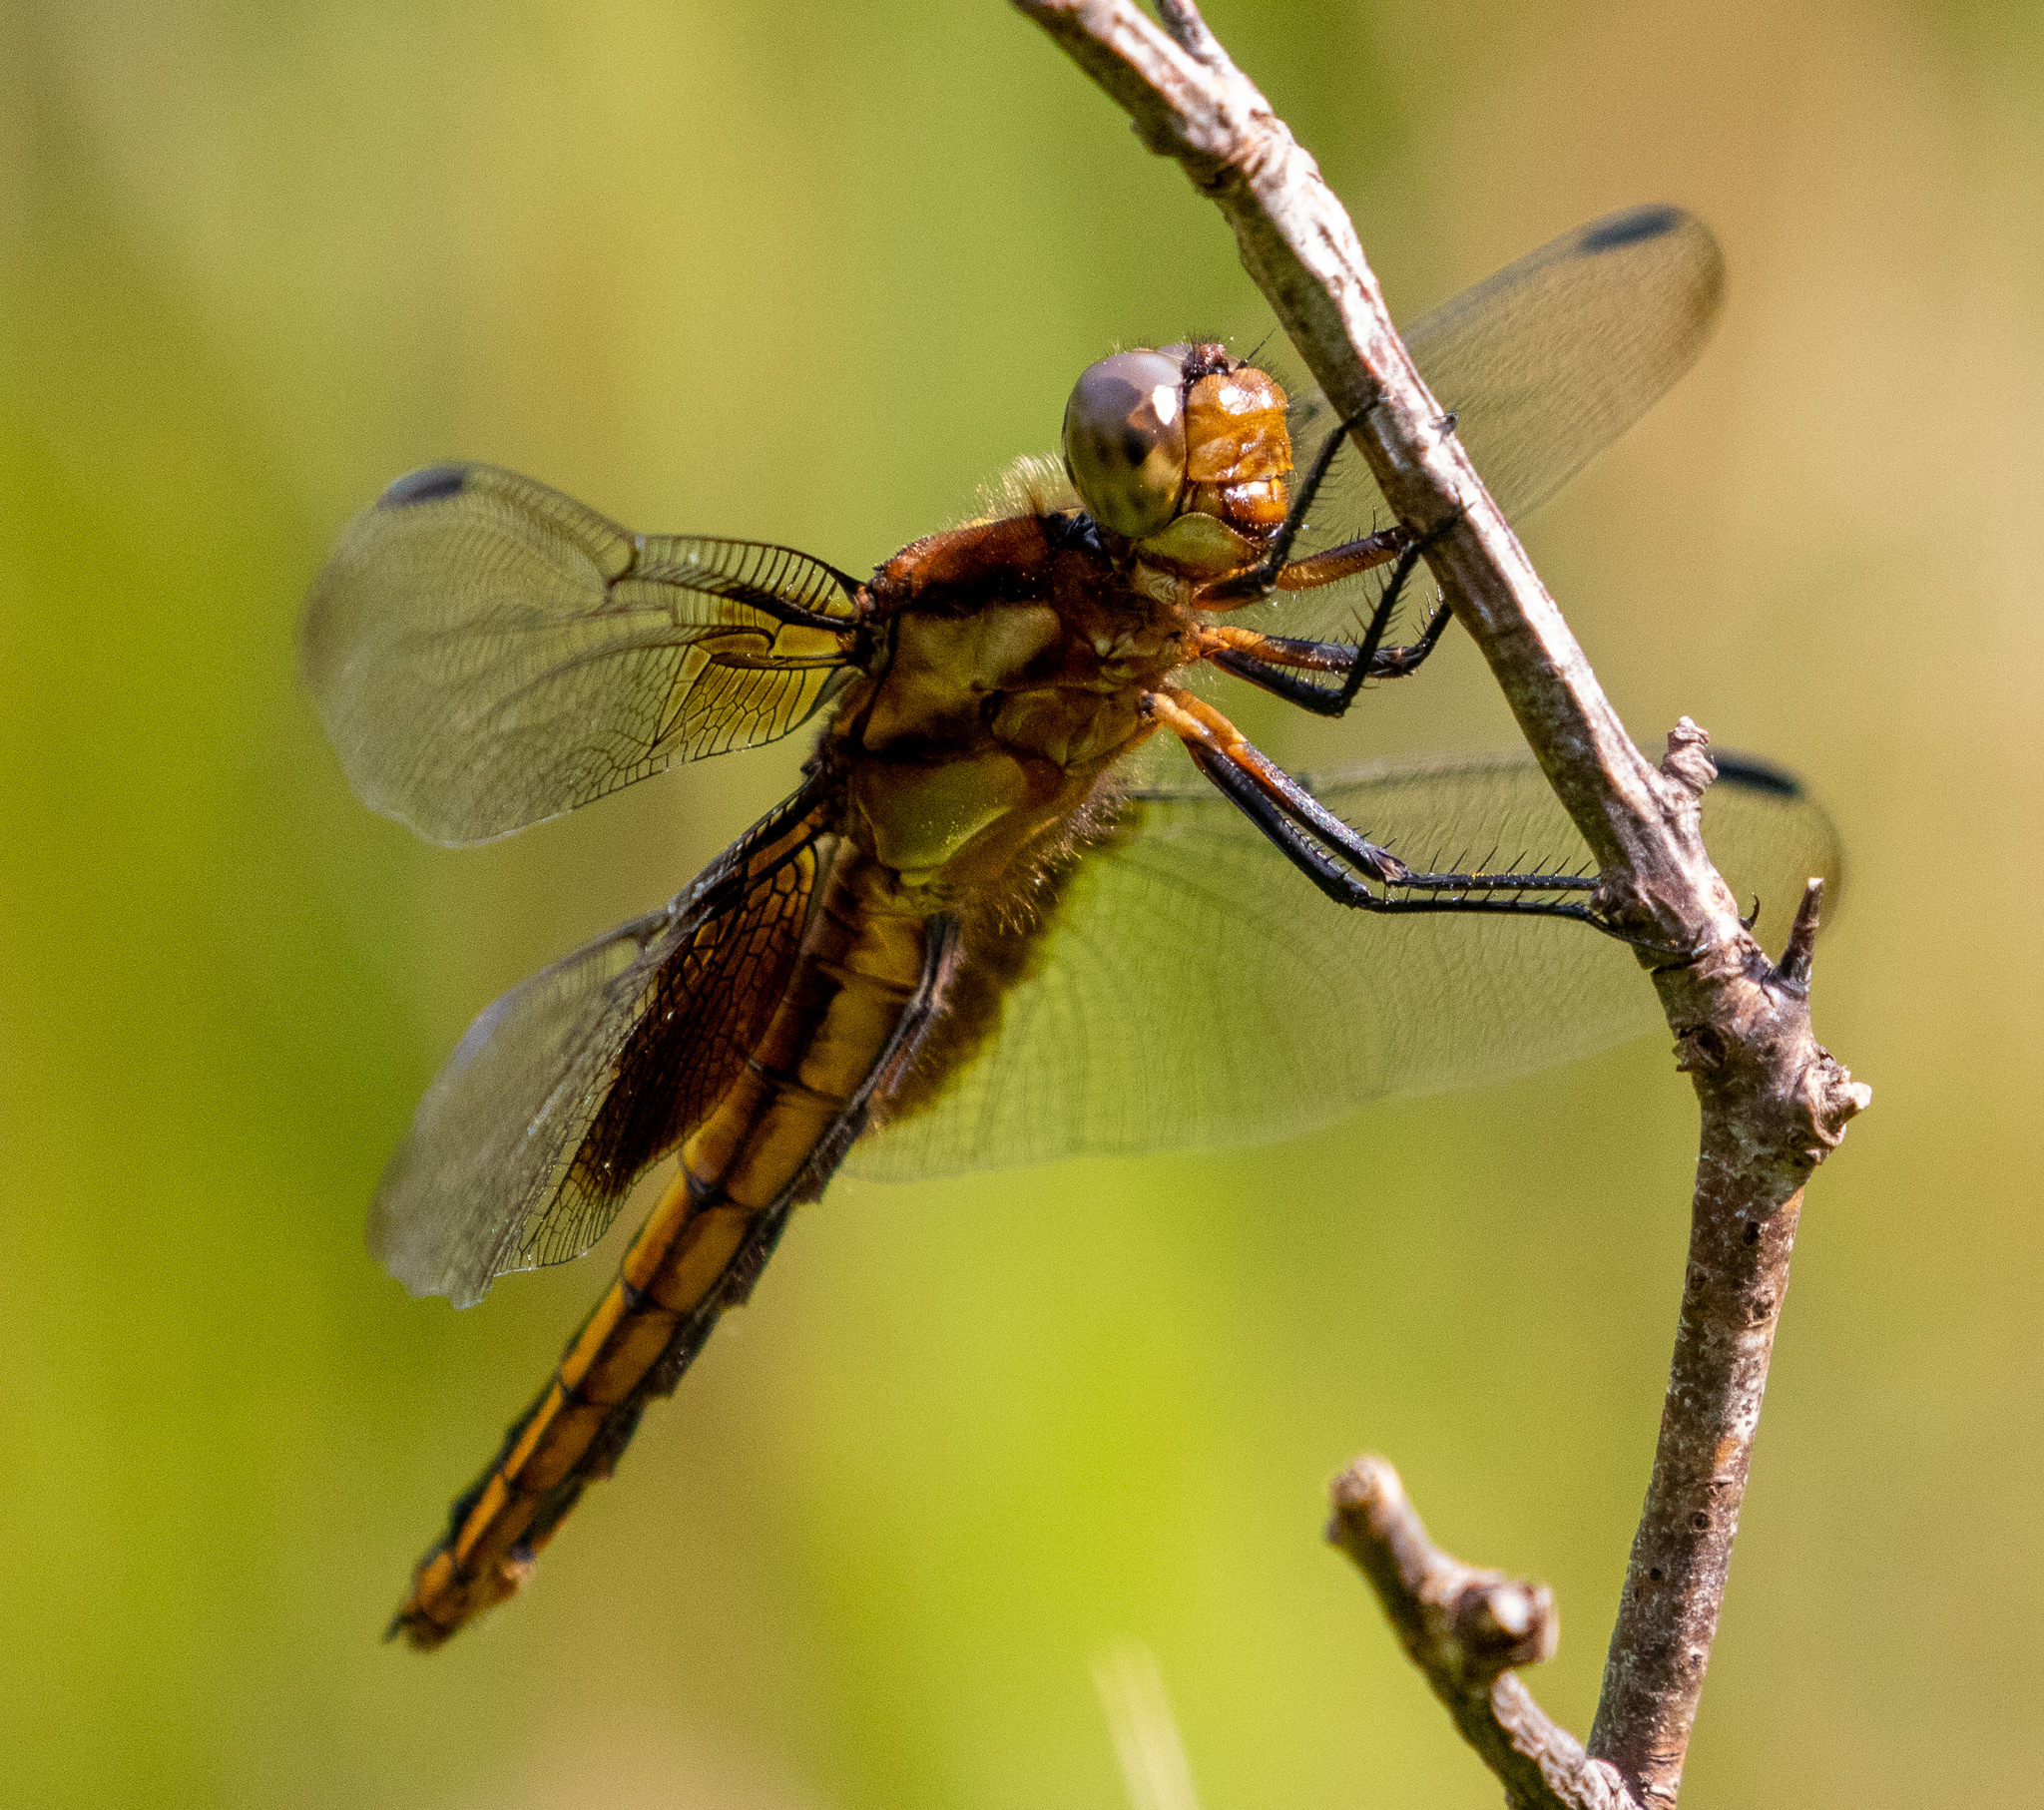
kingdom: Animalia
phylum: Arthropoda
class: Insecta
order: Odonata
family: Libellulidae
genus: Libellula
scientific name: Libellula luctuosa
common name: Widow skimmer
